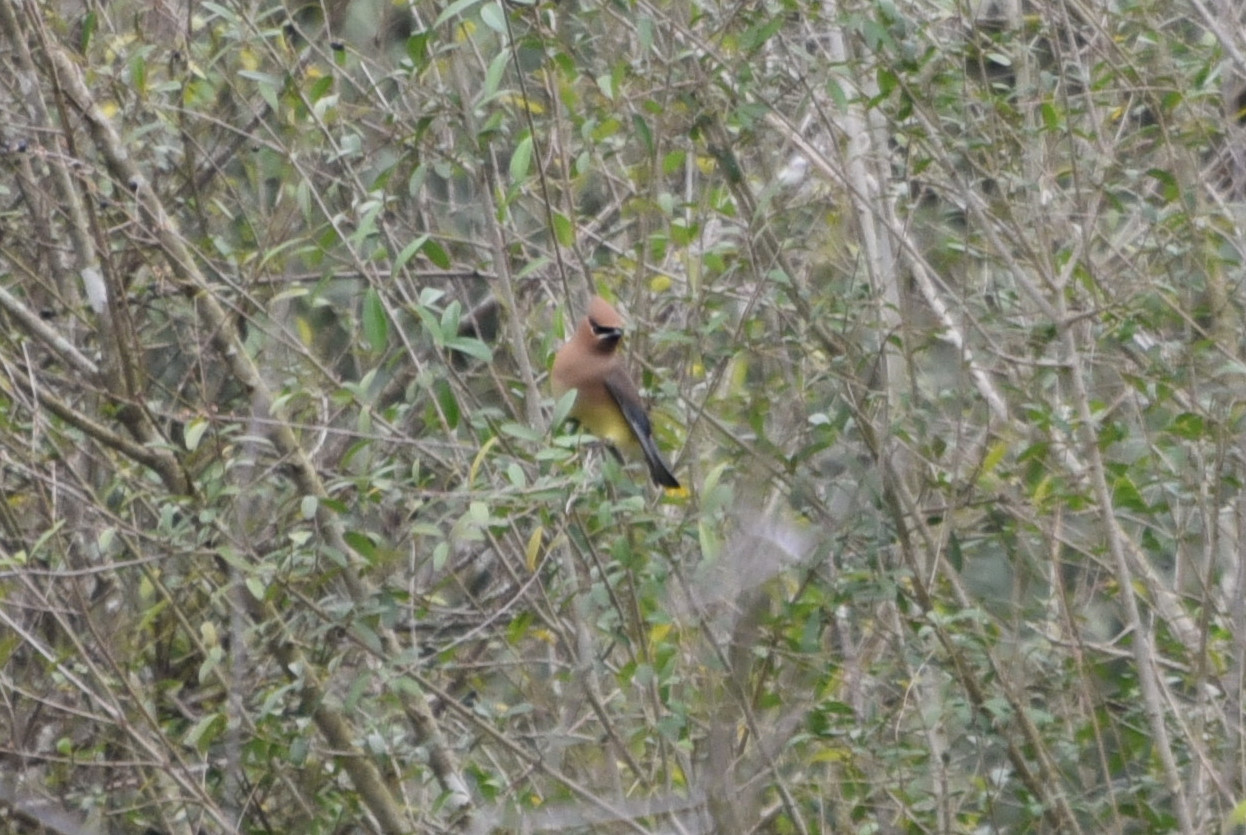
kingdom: Animalia
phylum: Chordata
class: Aves
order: Passeriformes
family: Bombycillidae
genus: Bombycilla
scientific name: Bombycilla cedrorum
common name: Cedar waxwing
